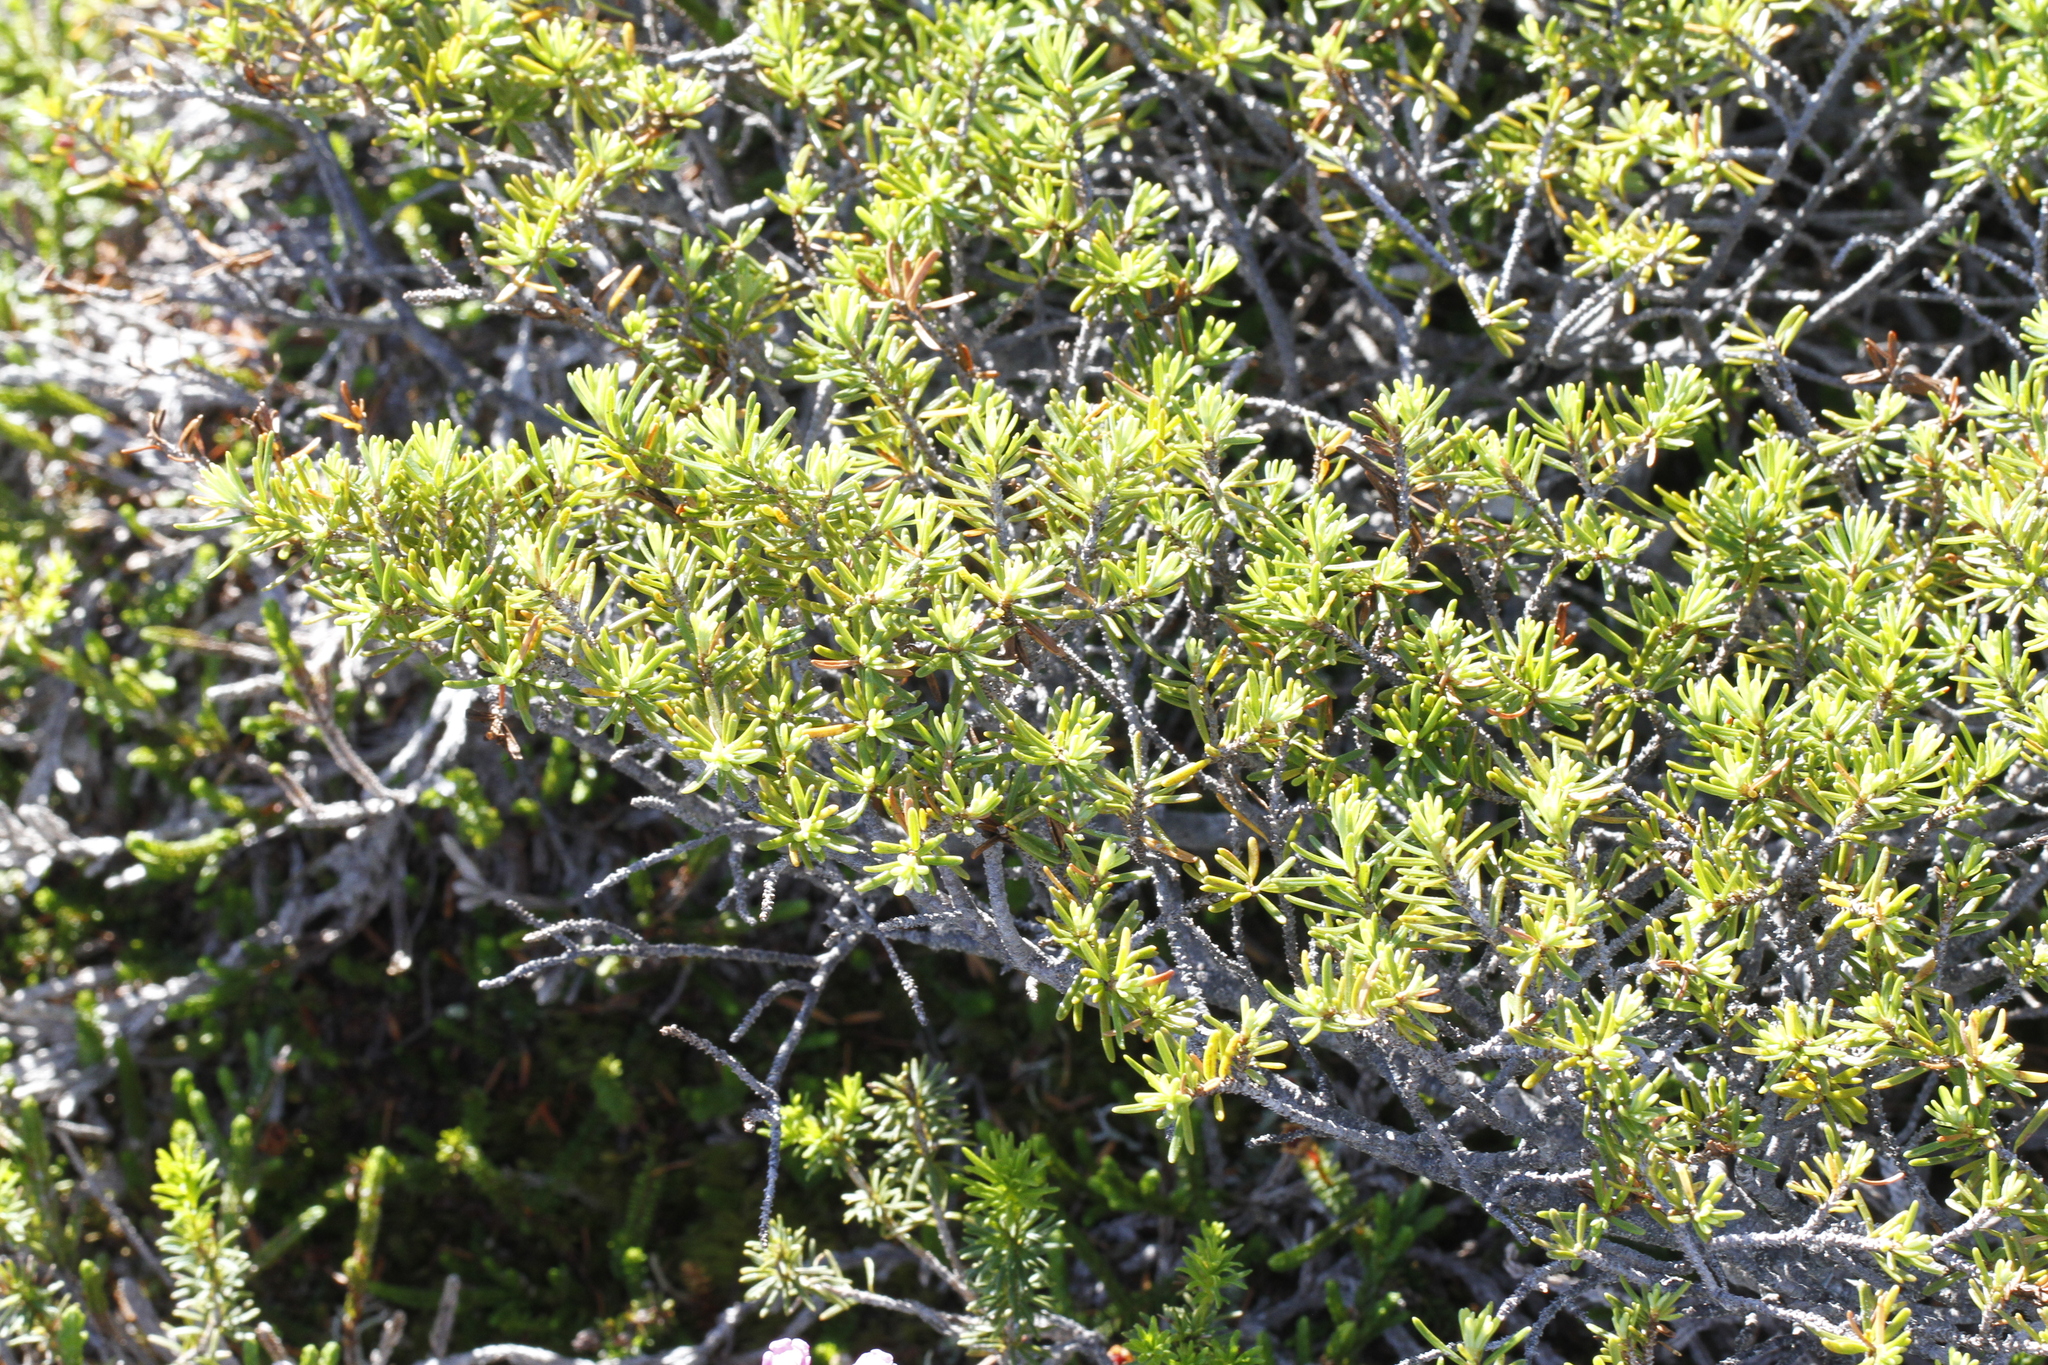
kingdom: Plantae
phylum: Tracheophyta
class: Pinopsida
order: Pinales
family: Pinaceae
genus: Tsuga
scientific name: Tsuga mertensiana
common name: Mountain hemlock
